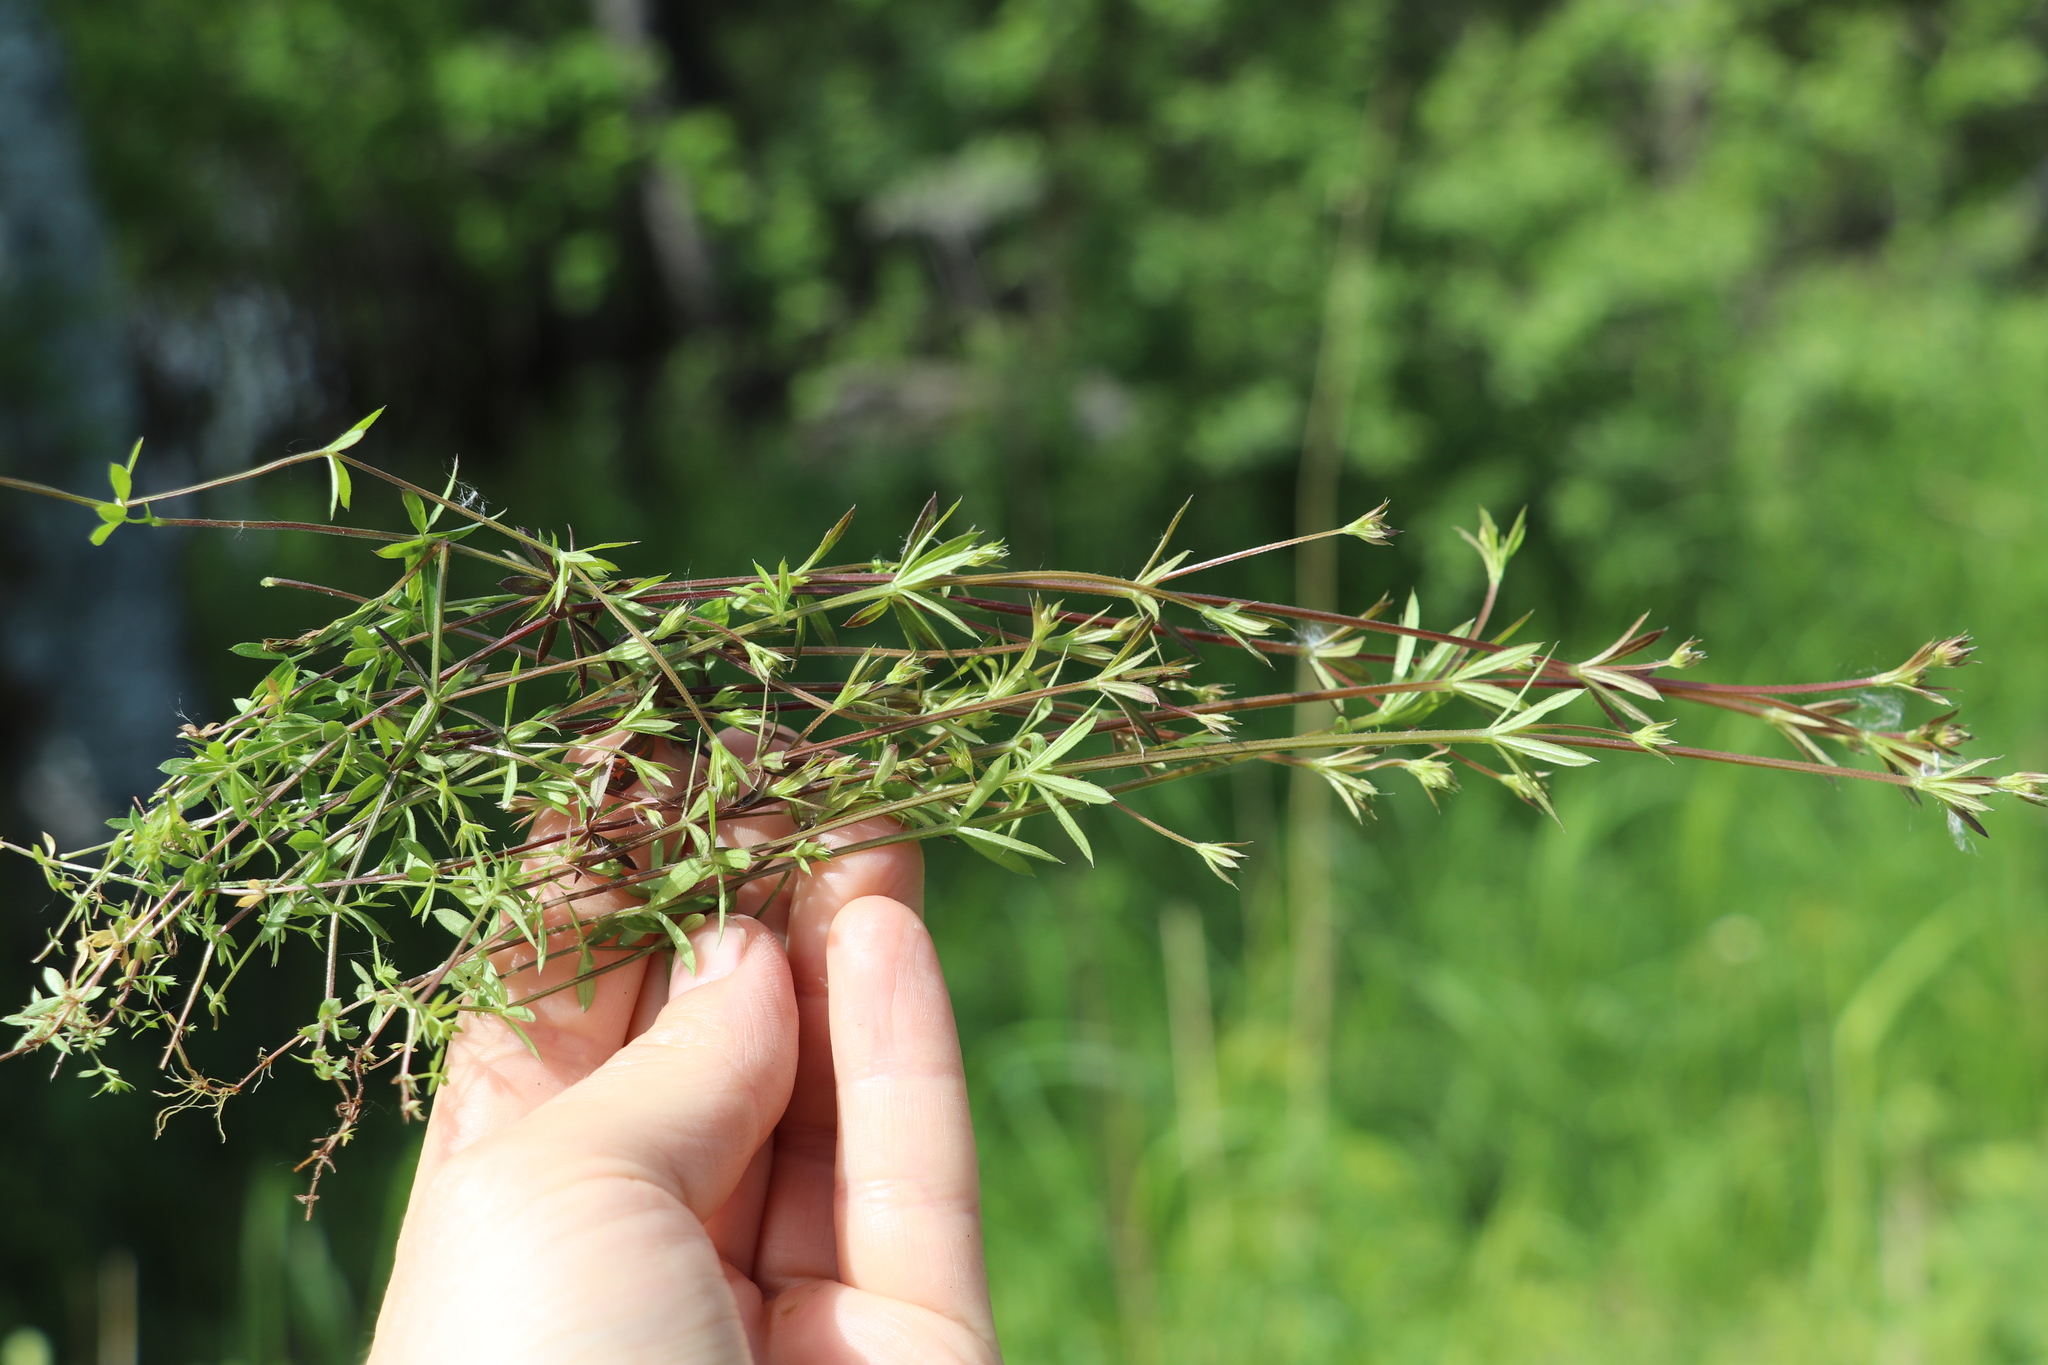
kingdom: Plantae
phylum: Tracheophyta
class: Magnoliopsida
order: Gentianales
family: Rubiaceae
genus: Galium
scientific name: Galium uliginosum
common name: Fen bedstraw
